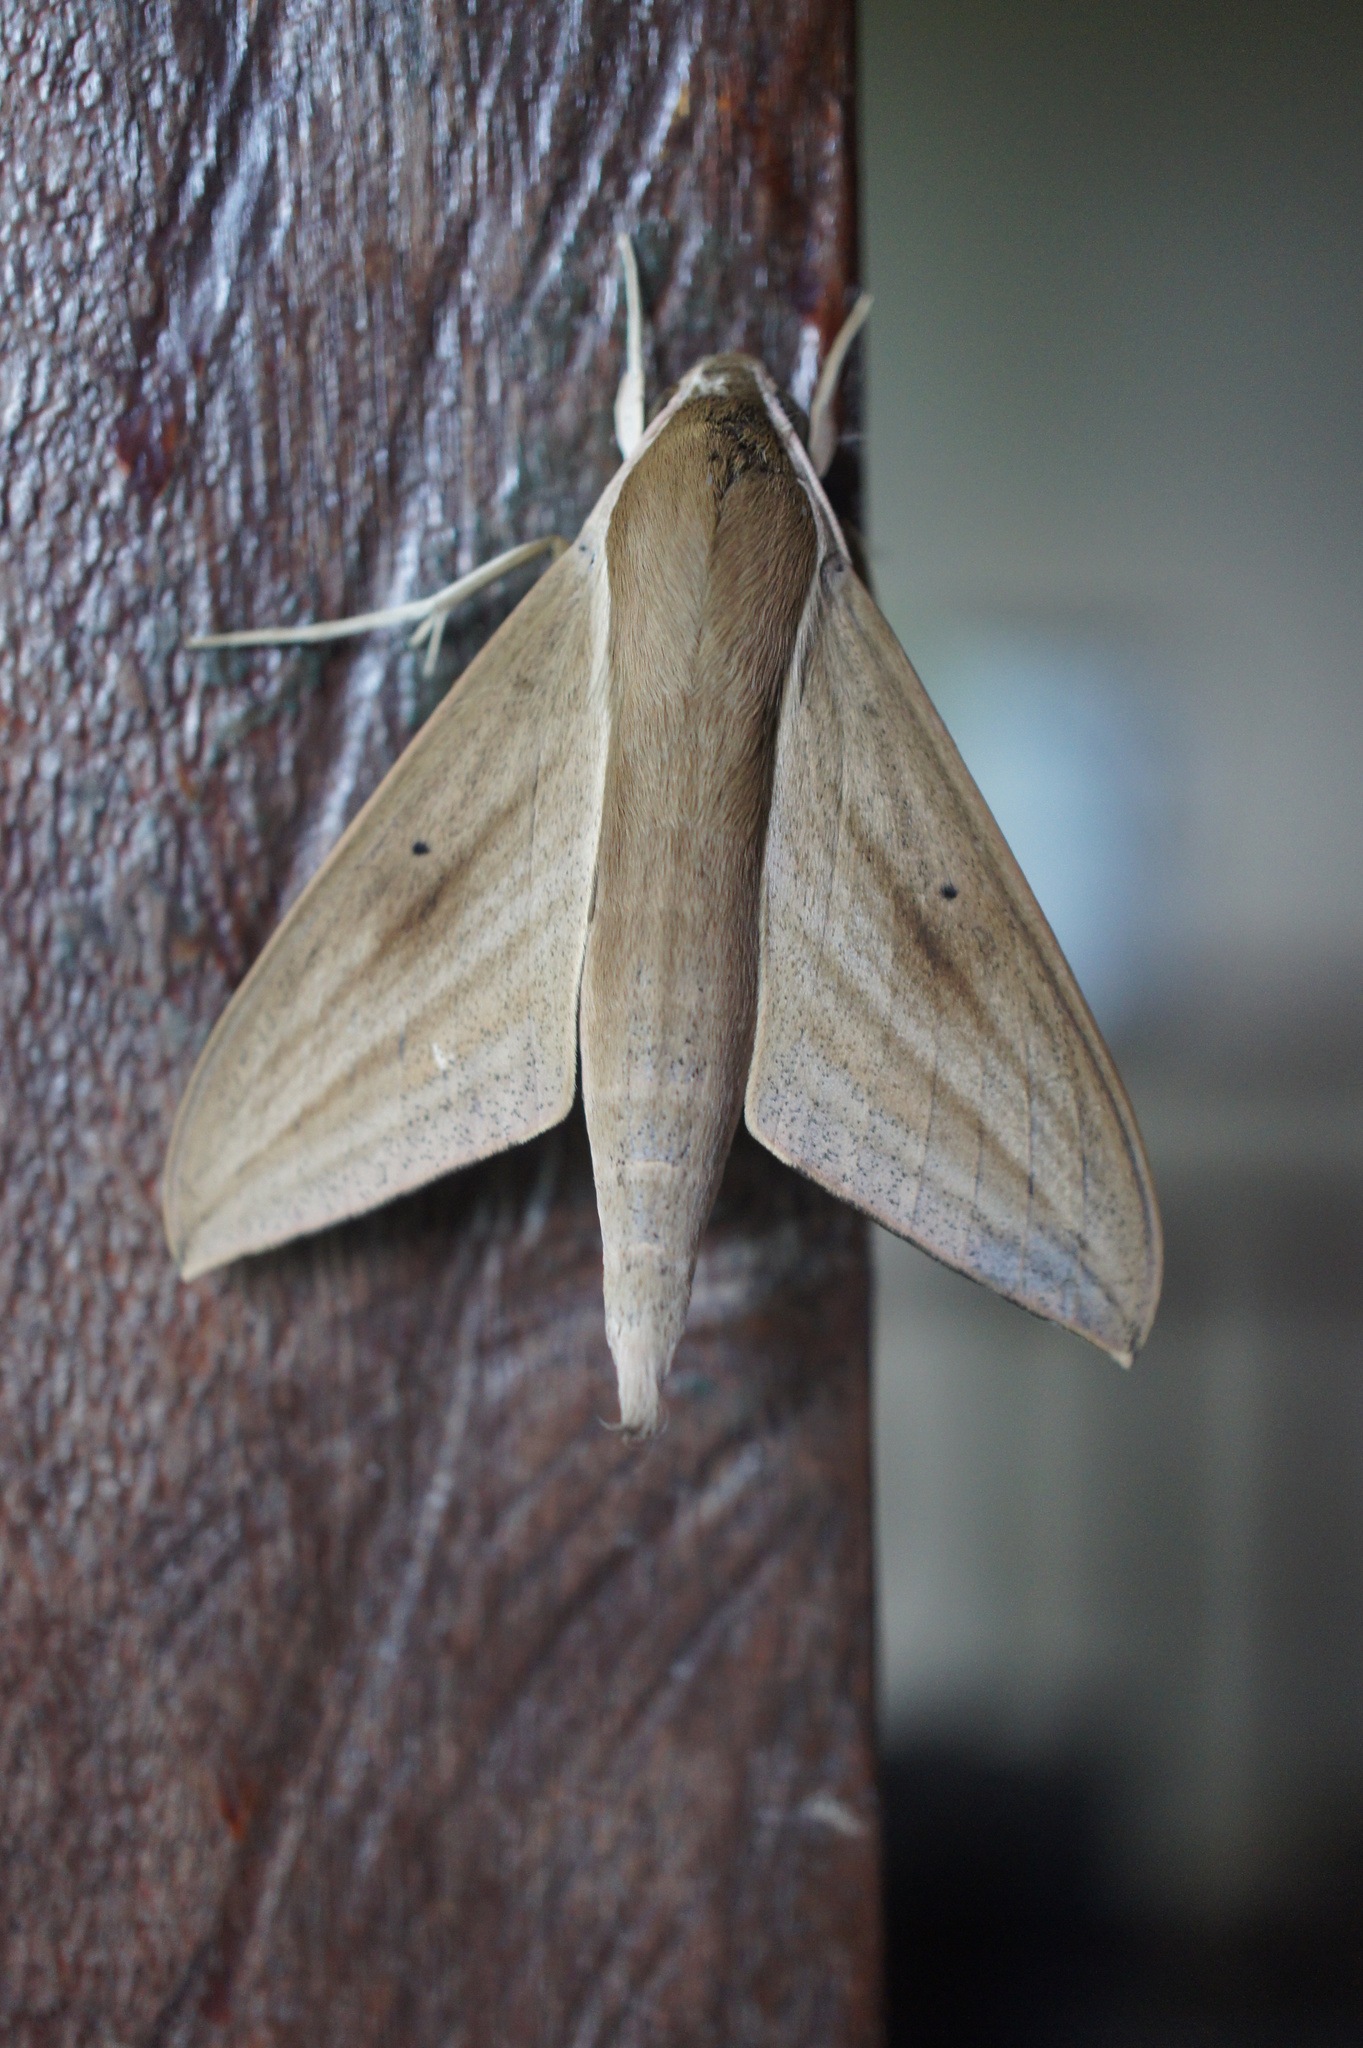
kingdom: Animalia
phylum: Arthropoda
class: Insecta
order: Lepidoptera
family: Sphingidae
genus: Theretra
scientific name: Theretra rhesus
